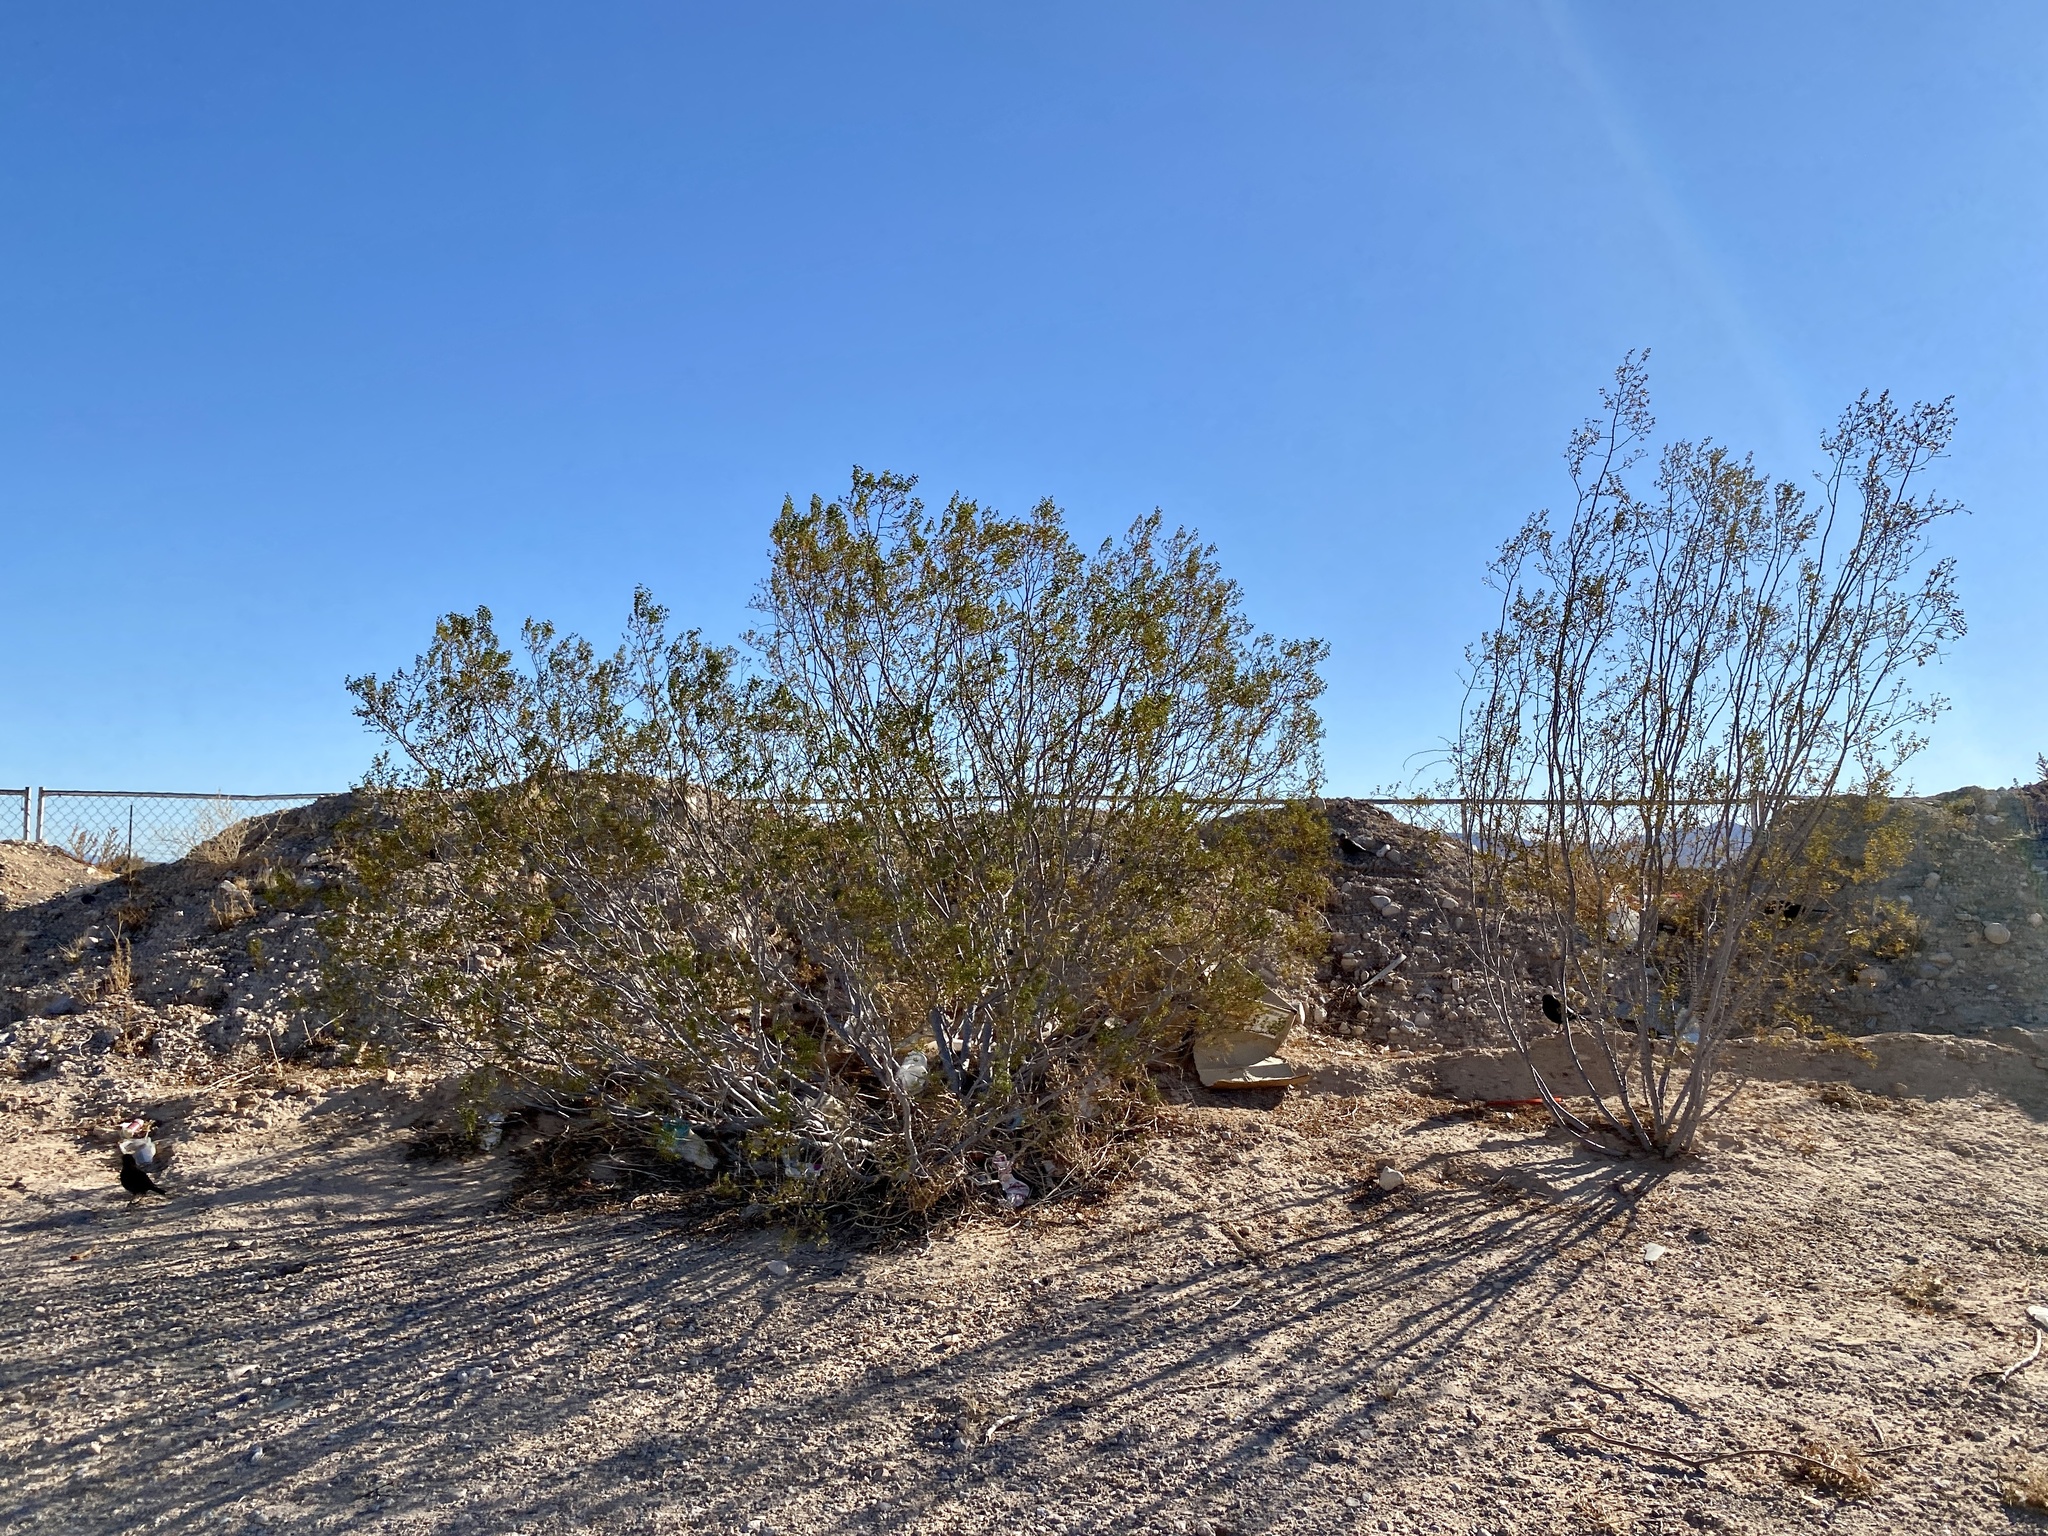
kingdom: Plantae
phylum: Tracheophyta
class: Magnoliopsida
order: Zygophyllales
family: Zygophyllaceae
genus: Larrea
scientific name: Larrea tridentata
